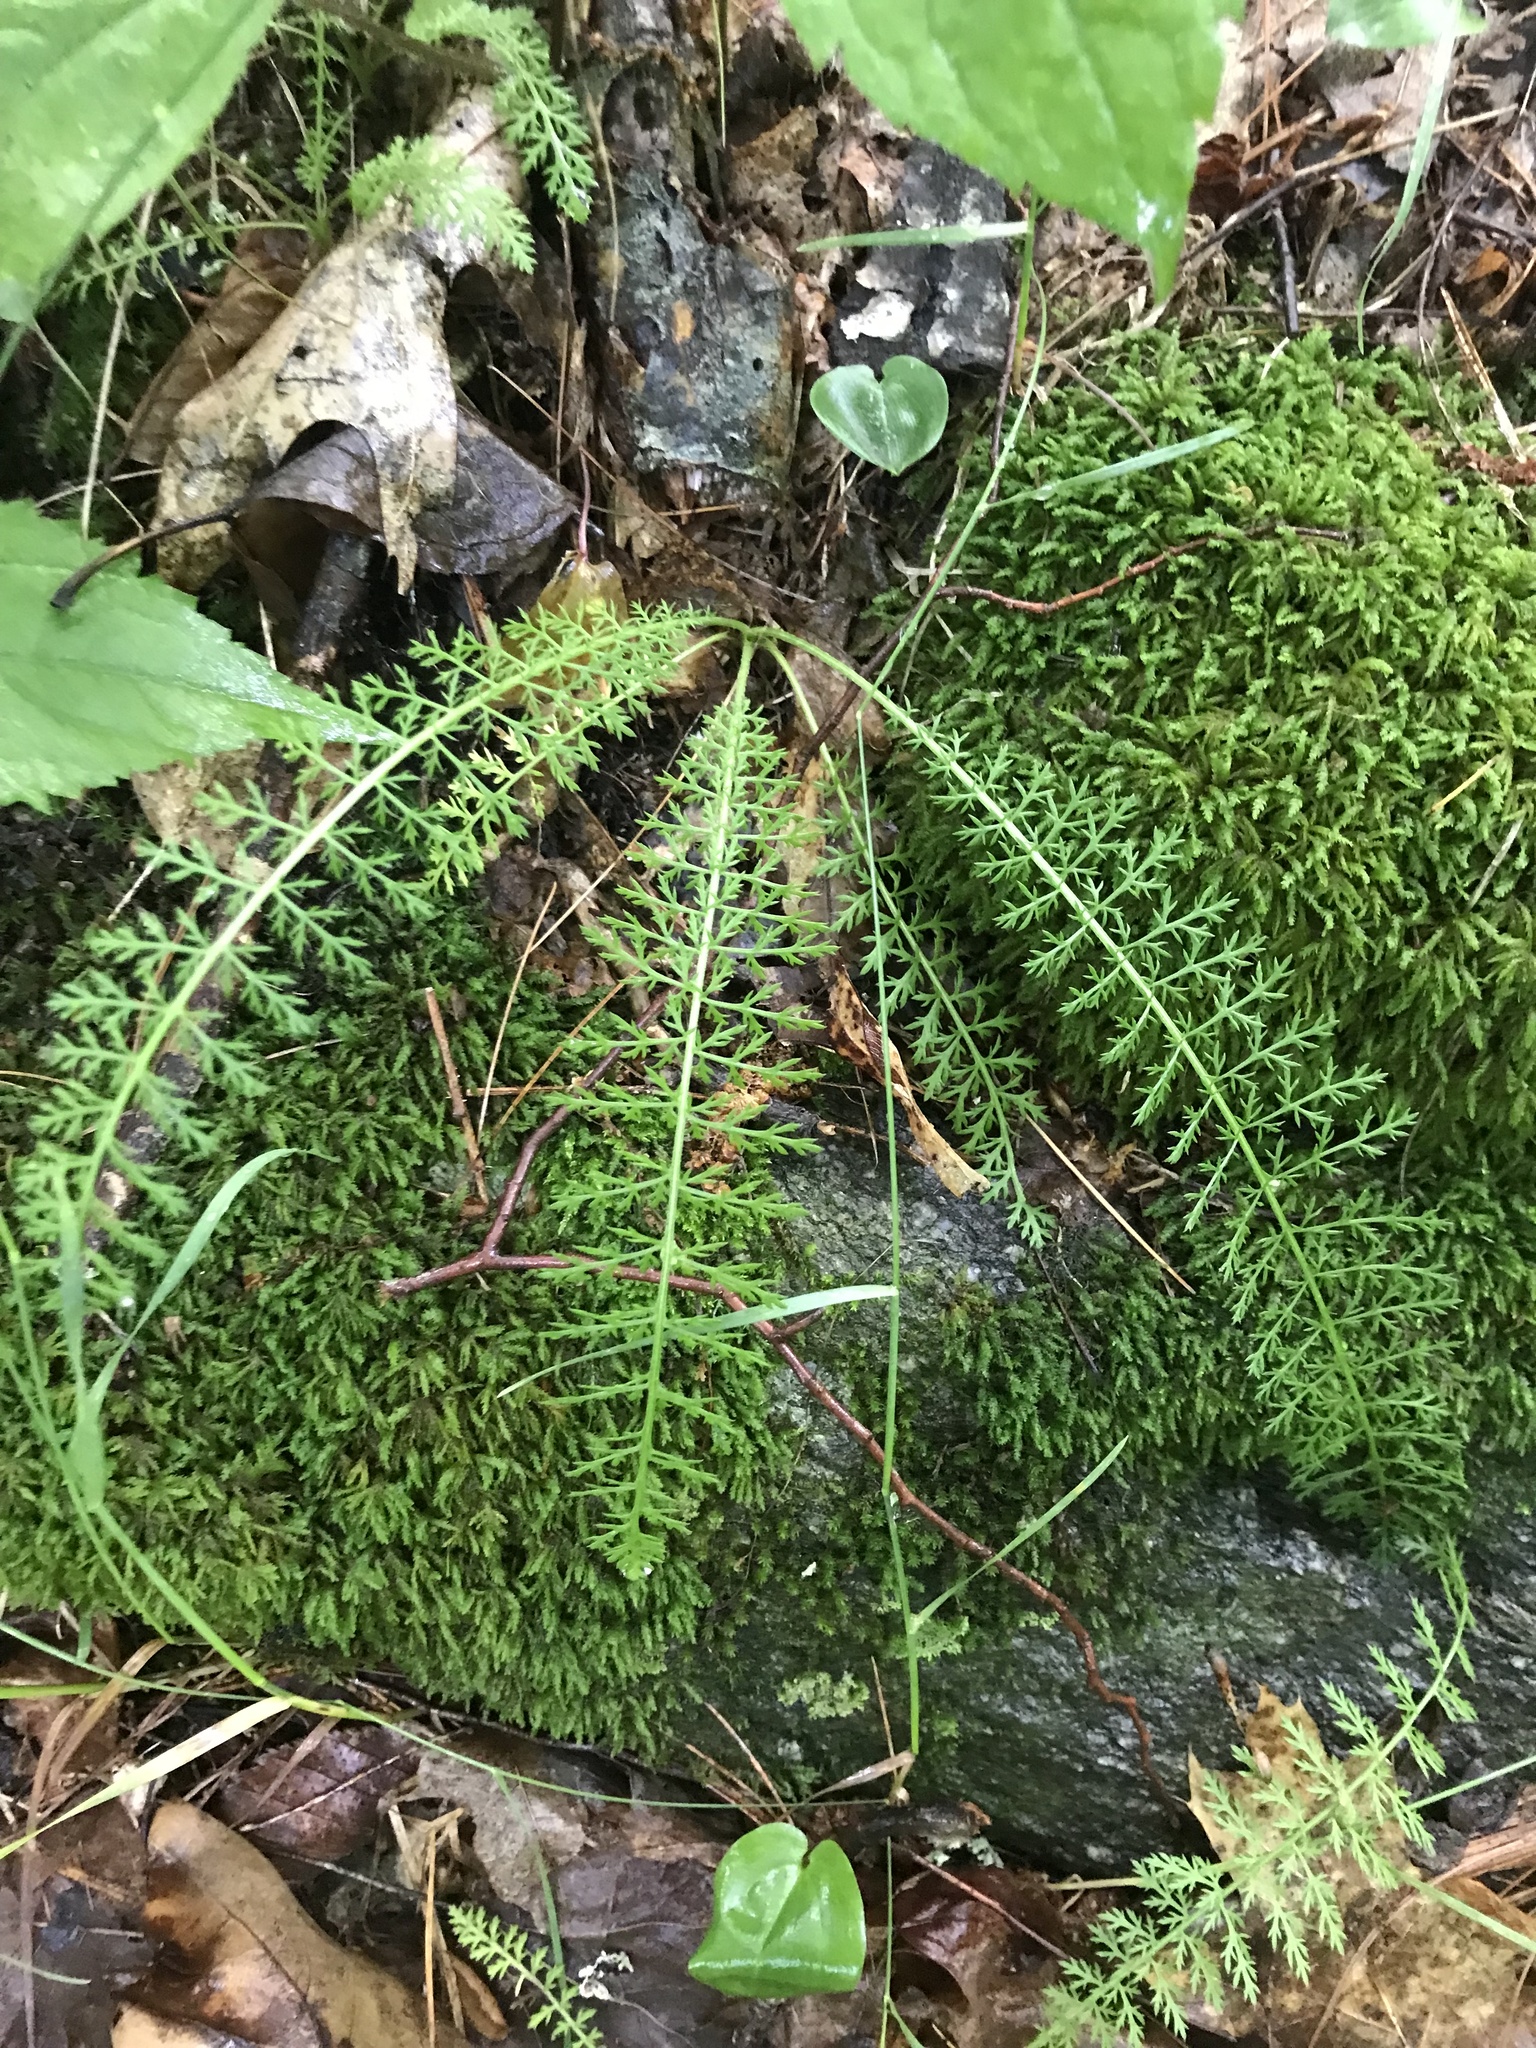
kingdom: Plantae
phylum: Tracheophyta
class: Magnoliopsida
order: Asterales
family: Asteraceae
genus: Achillea
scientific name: Achillea millefolium
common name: Yarrow
